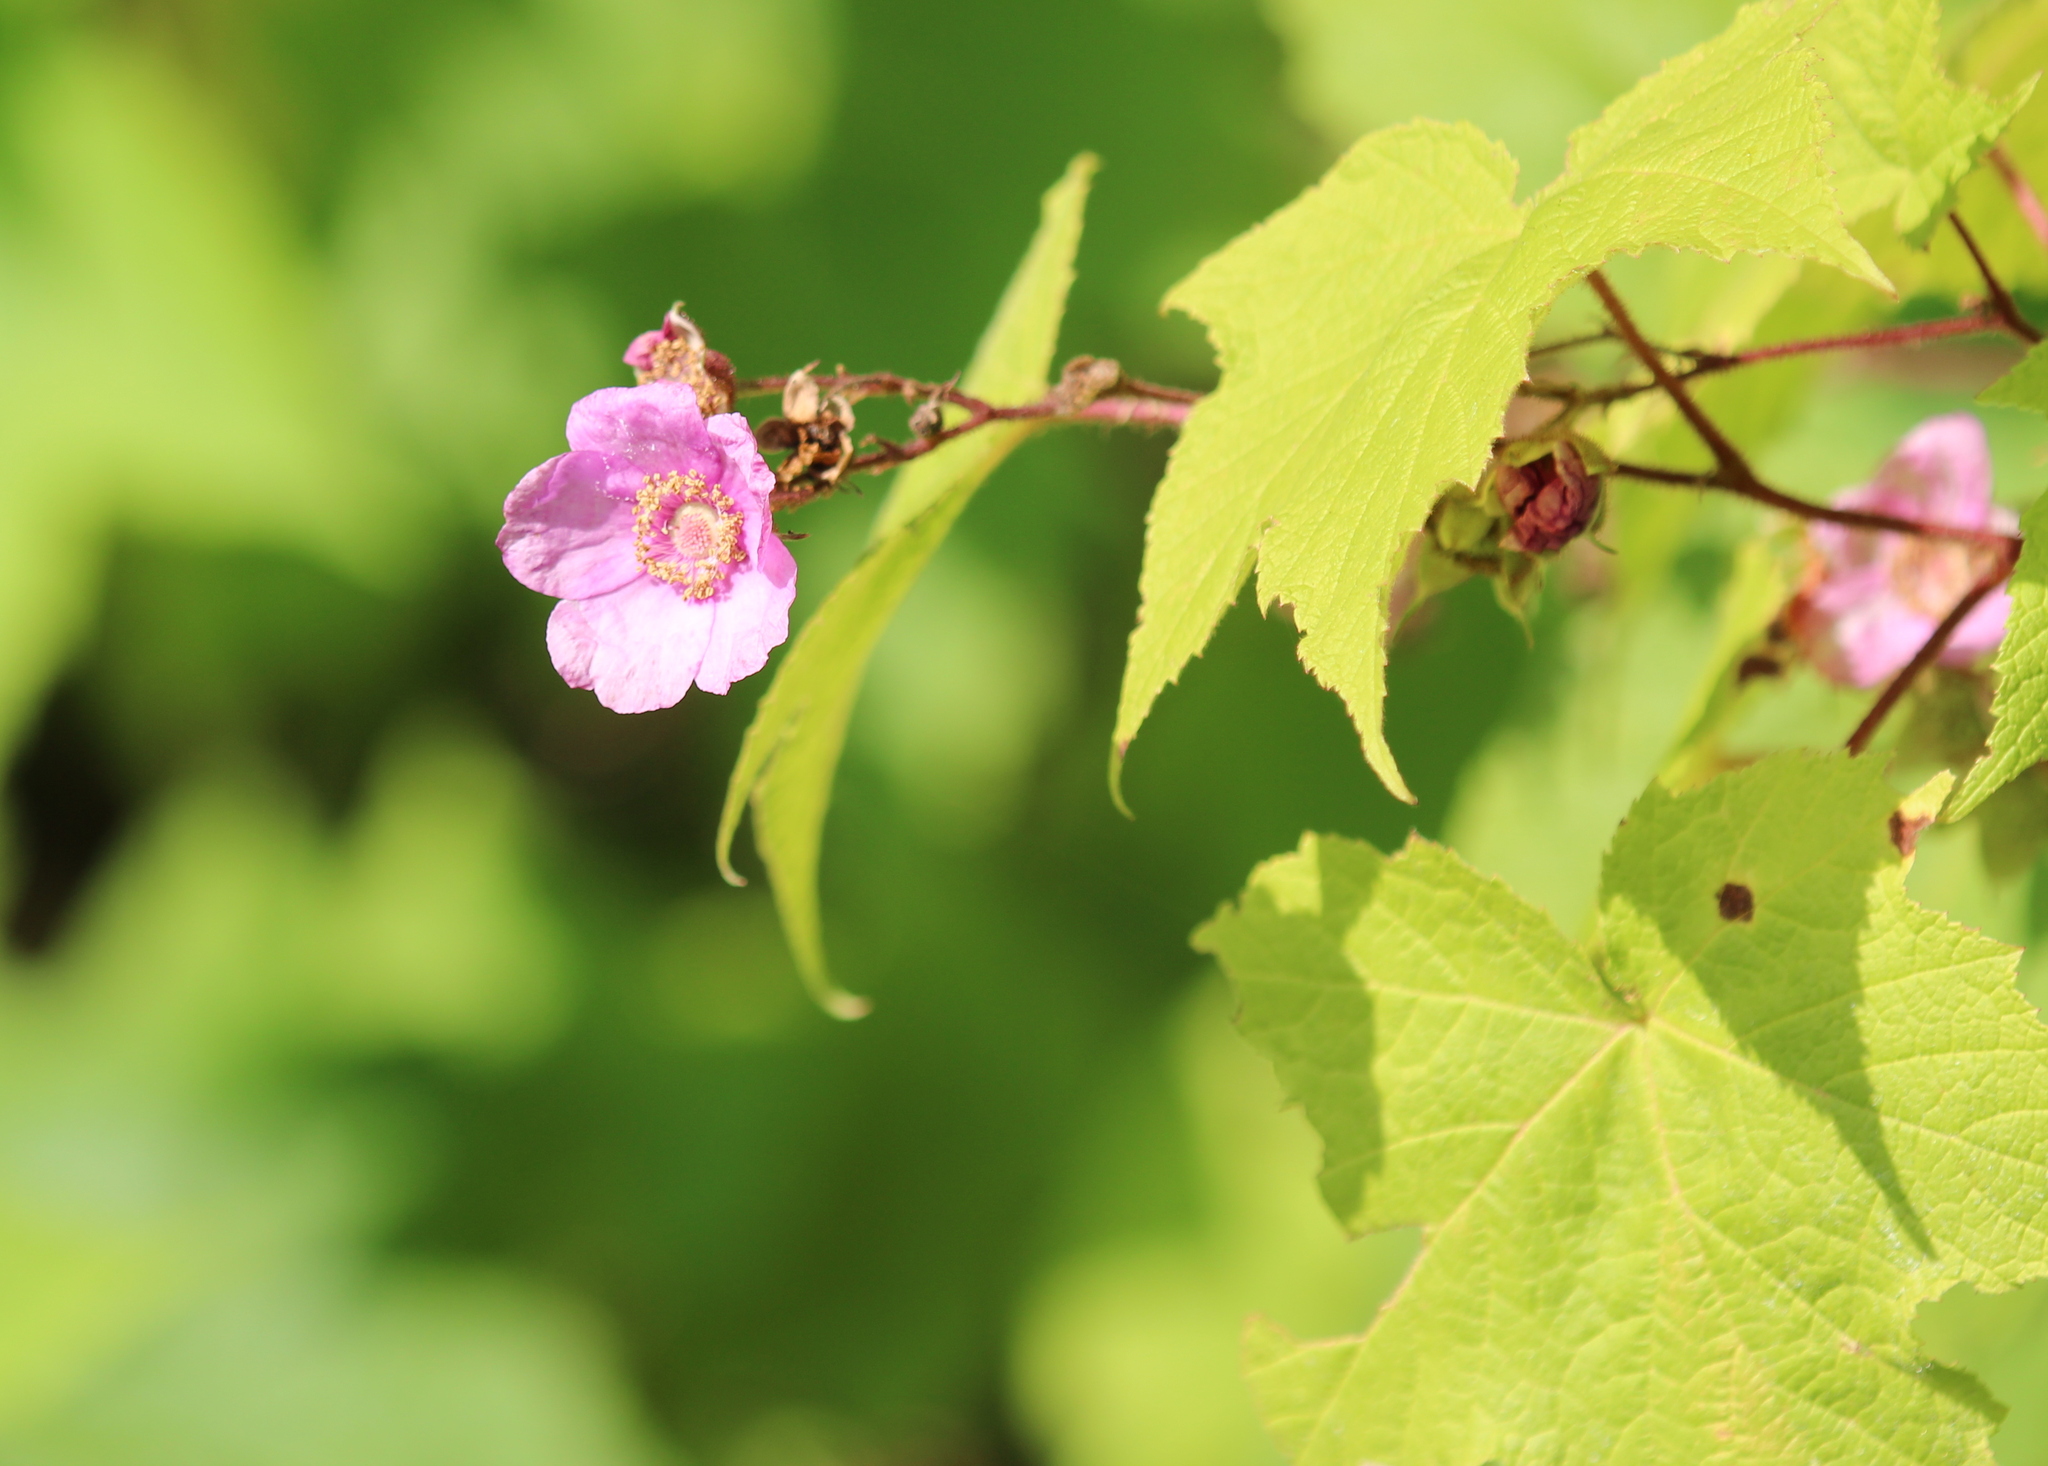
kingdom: Plantae
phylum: Tracheophyta
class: Magnoliopsida
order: Rosales
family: Rosaceae
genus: Rubus
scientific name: Rubus odoratus
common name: Purple-flowered raspberry
